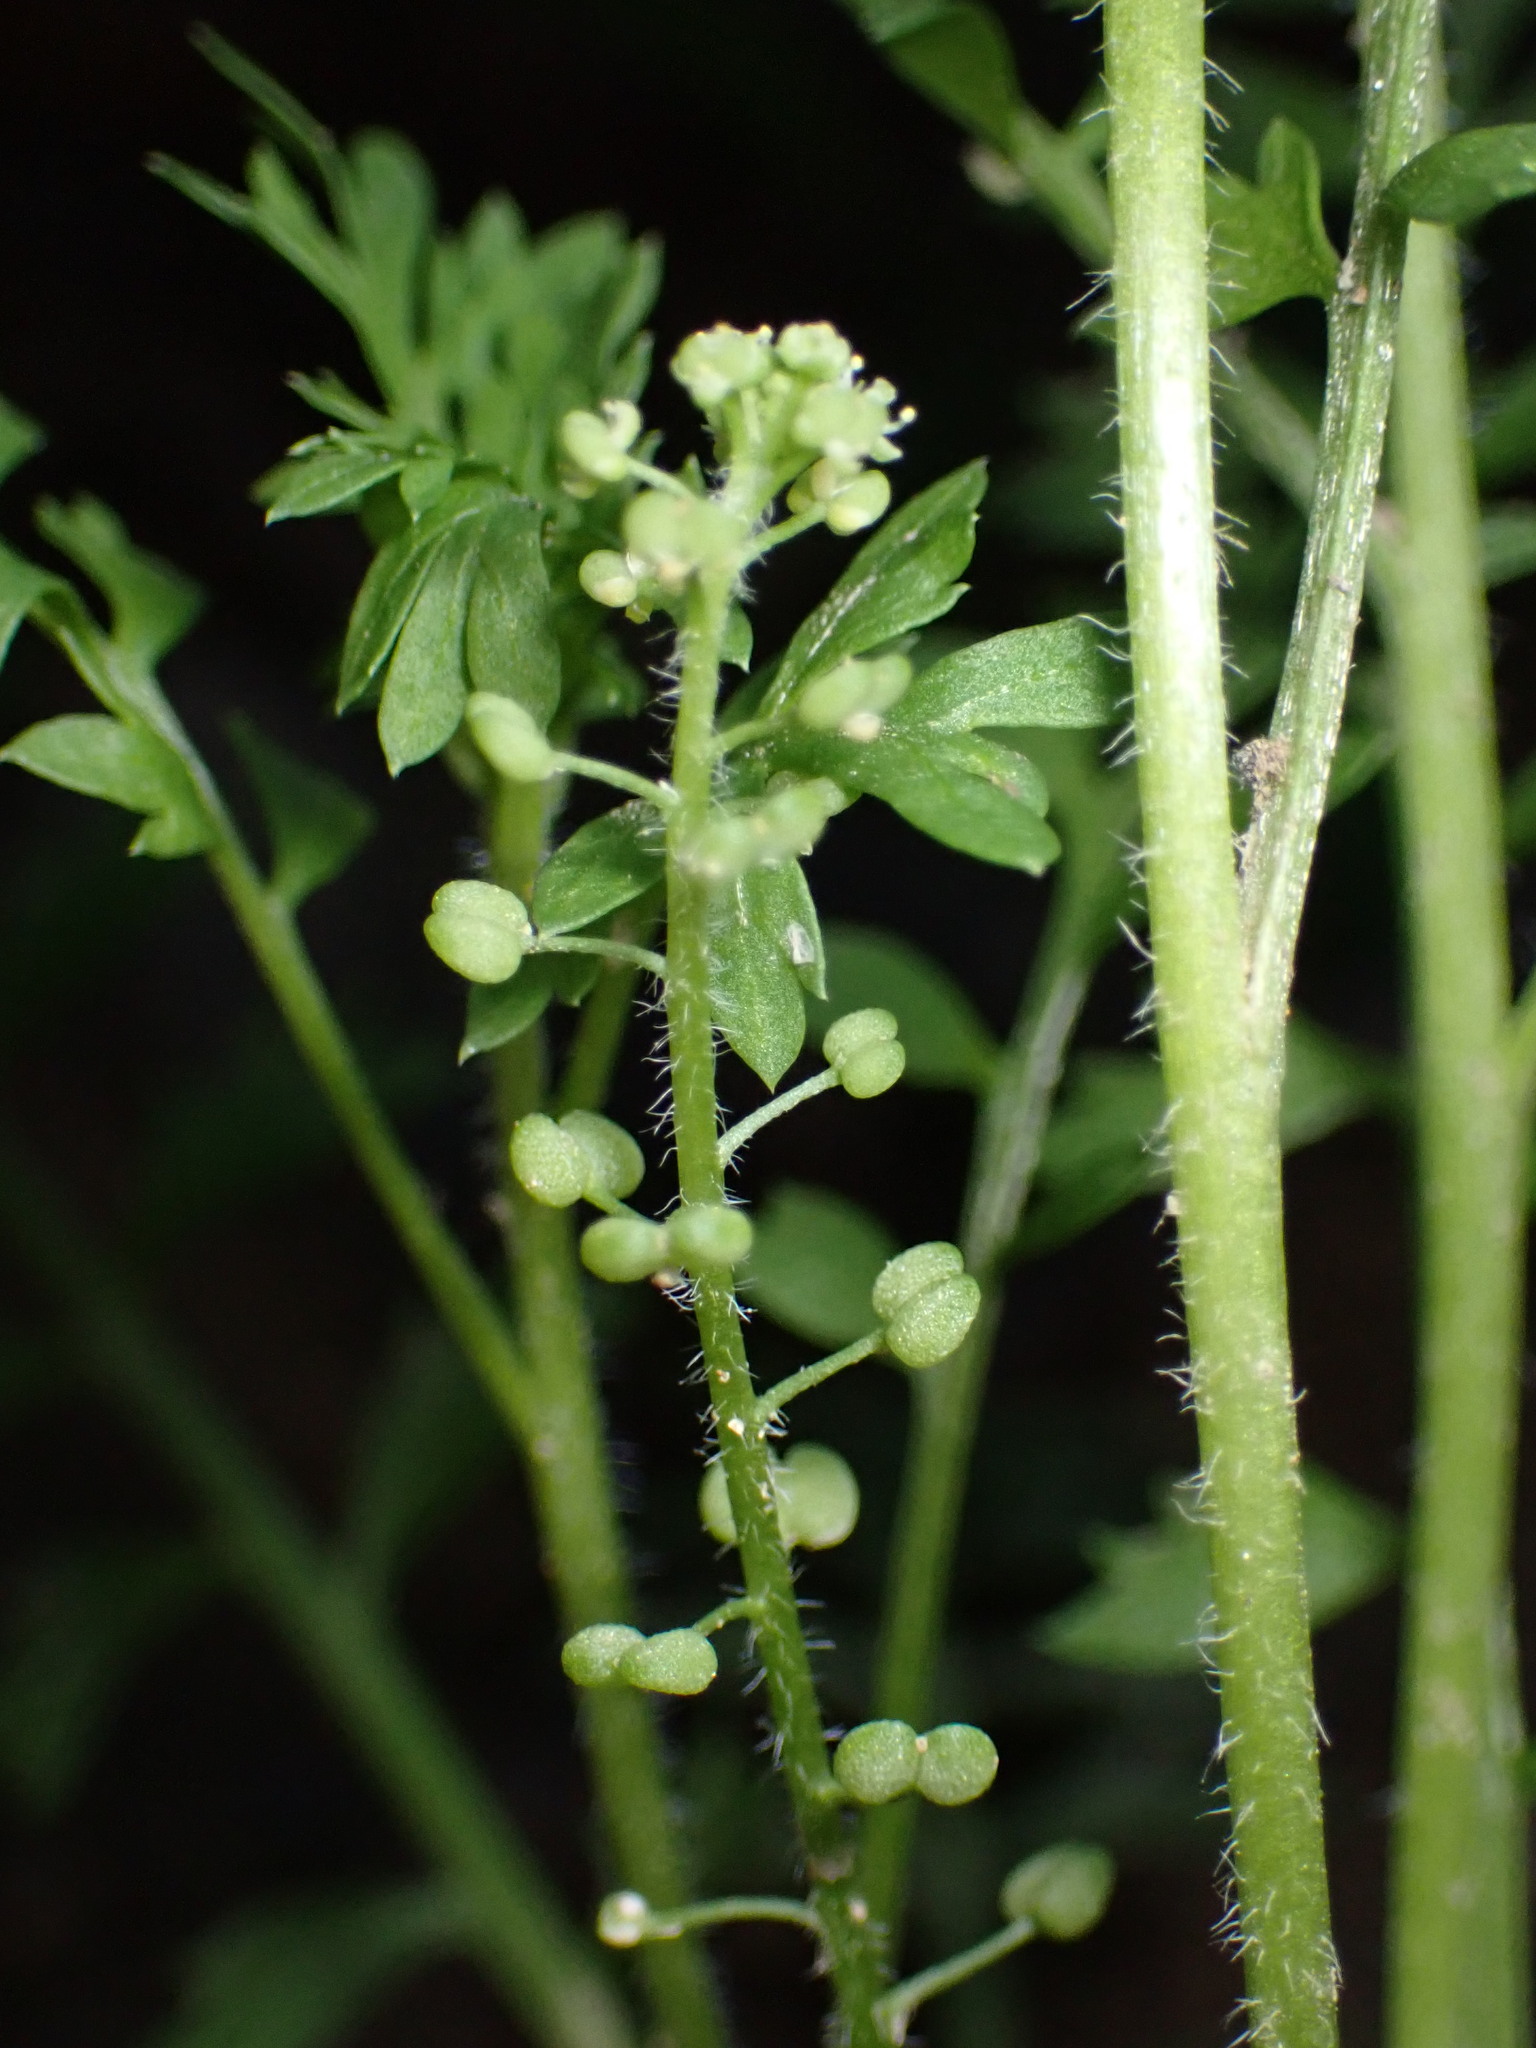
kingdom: Plantae
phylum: Tracheophyta
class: Magnoliopsida
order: Brassicales
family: Brassicaceae
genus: Lepidium
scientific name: Lepidium didymum
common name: Lesser swinecress
